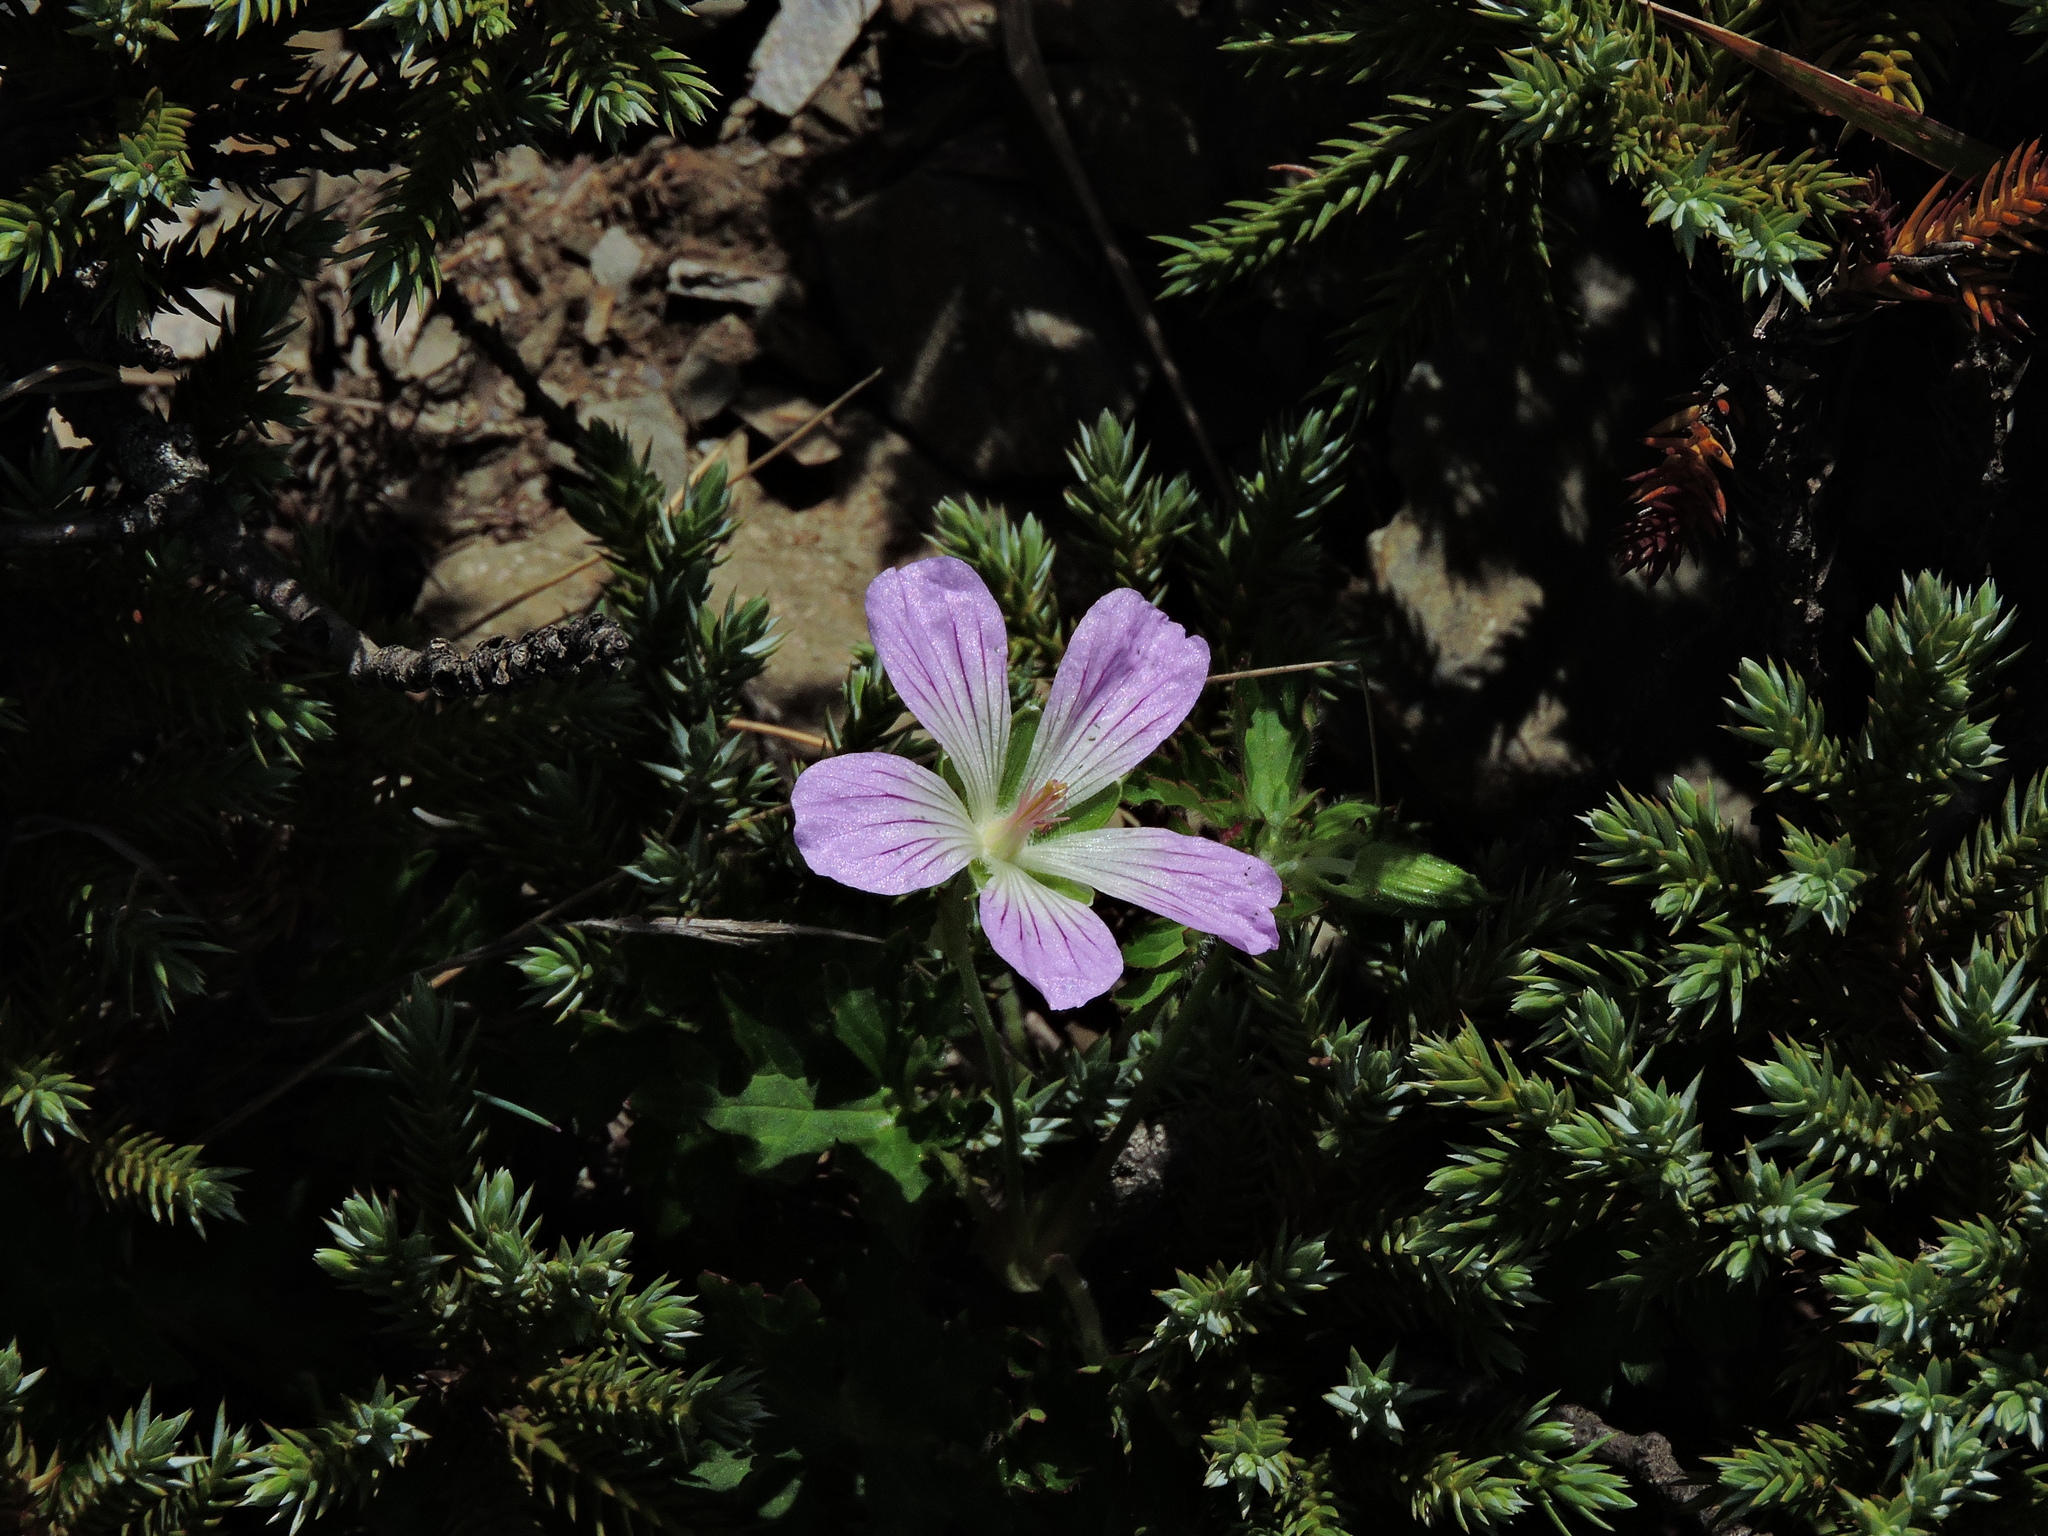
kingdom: Plantae
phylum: Tracheophyta
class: Magnoliopsida
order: Geraniales
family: Geraniaceae
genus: Geranium
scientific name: Geranium hayatanum
